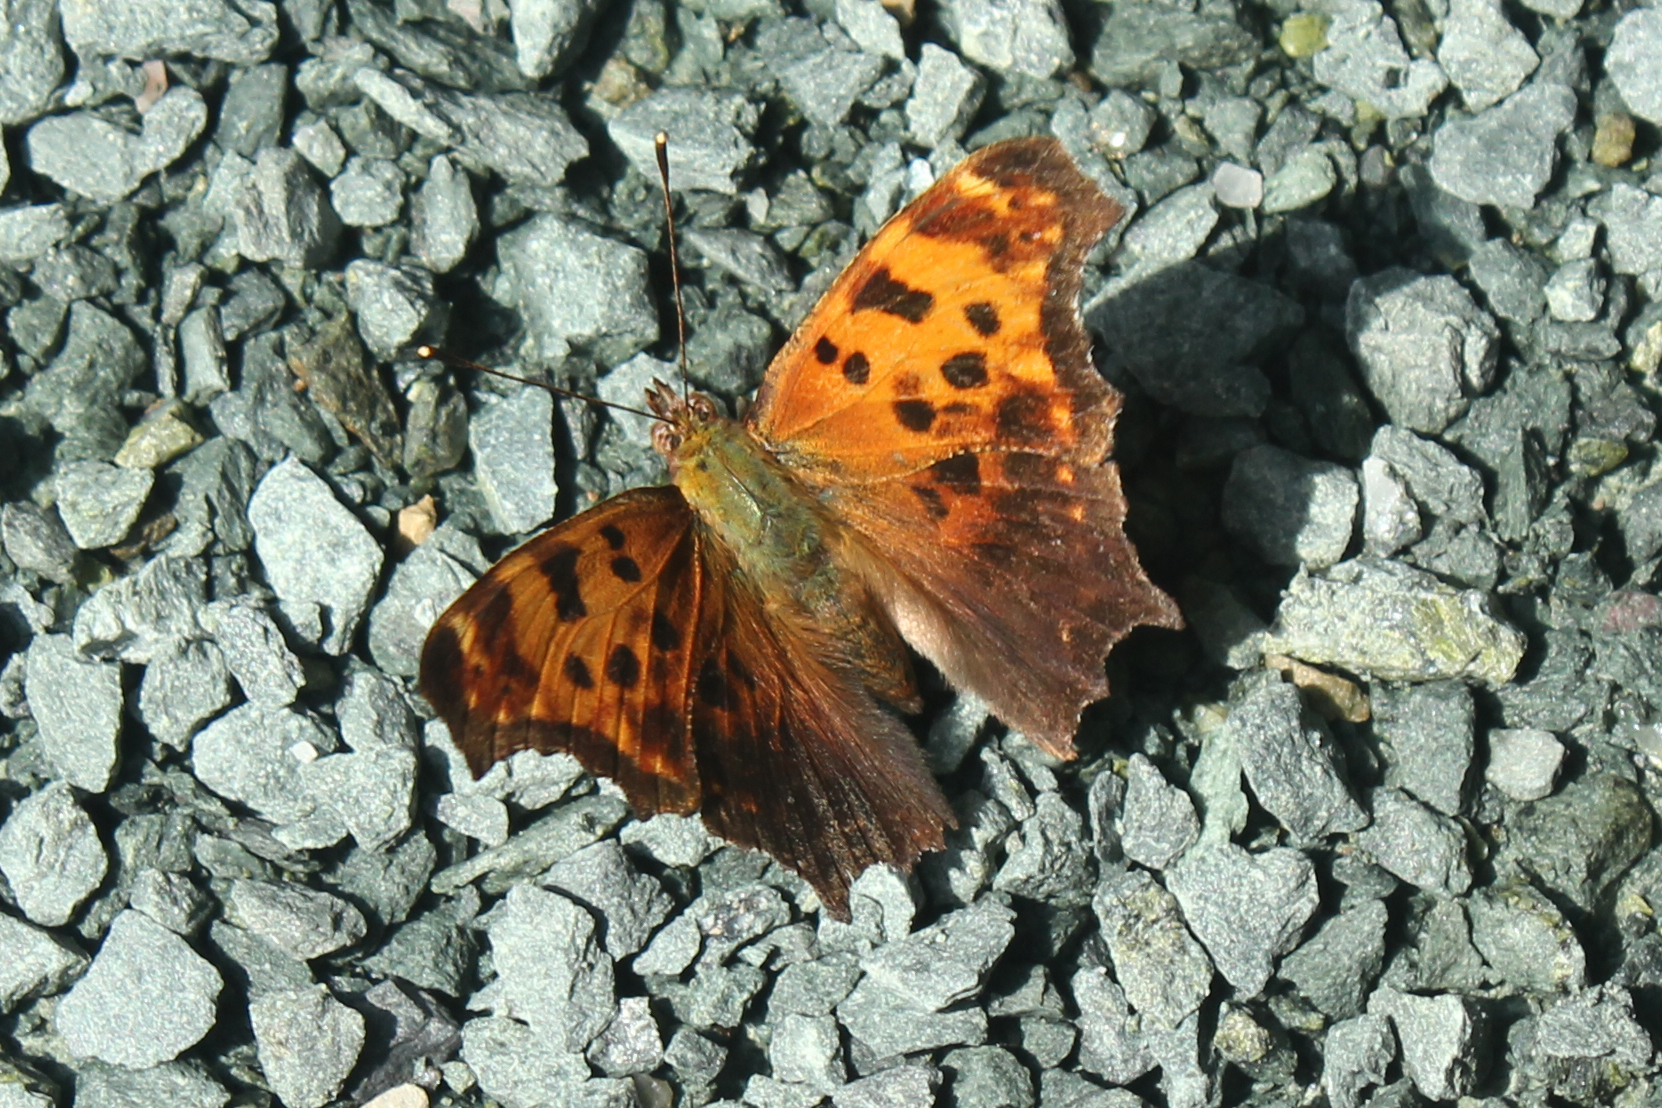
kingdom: Animalia
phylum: Arthropoda
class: Insecta
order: Lepidoptera
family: Nymphalidae
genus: Polygonia
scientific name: Polygonia comma
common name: Eastern comma
